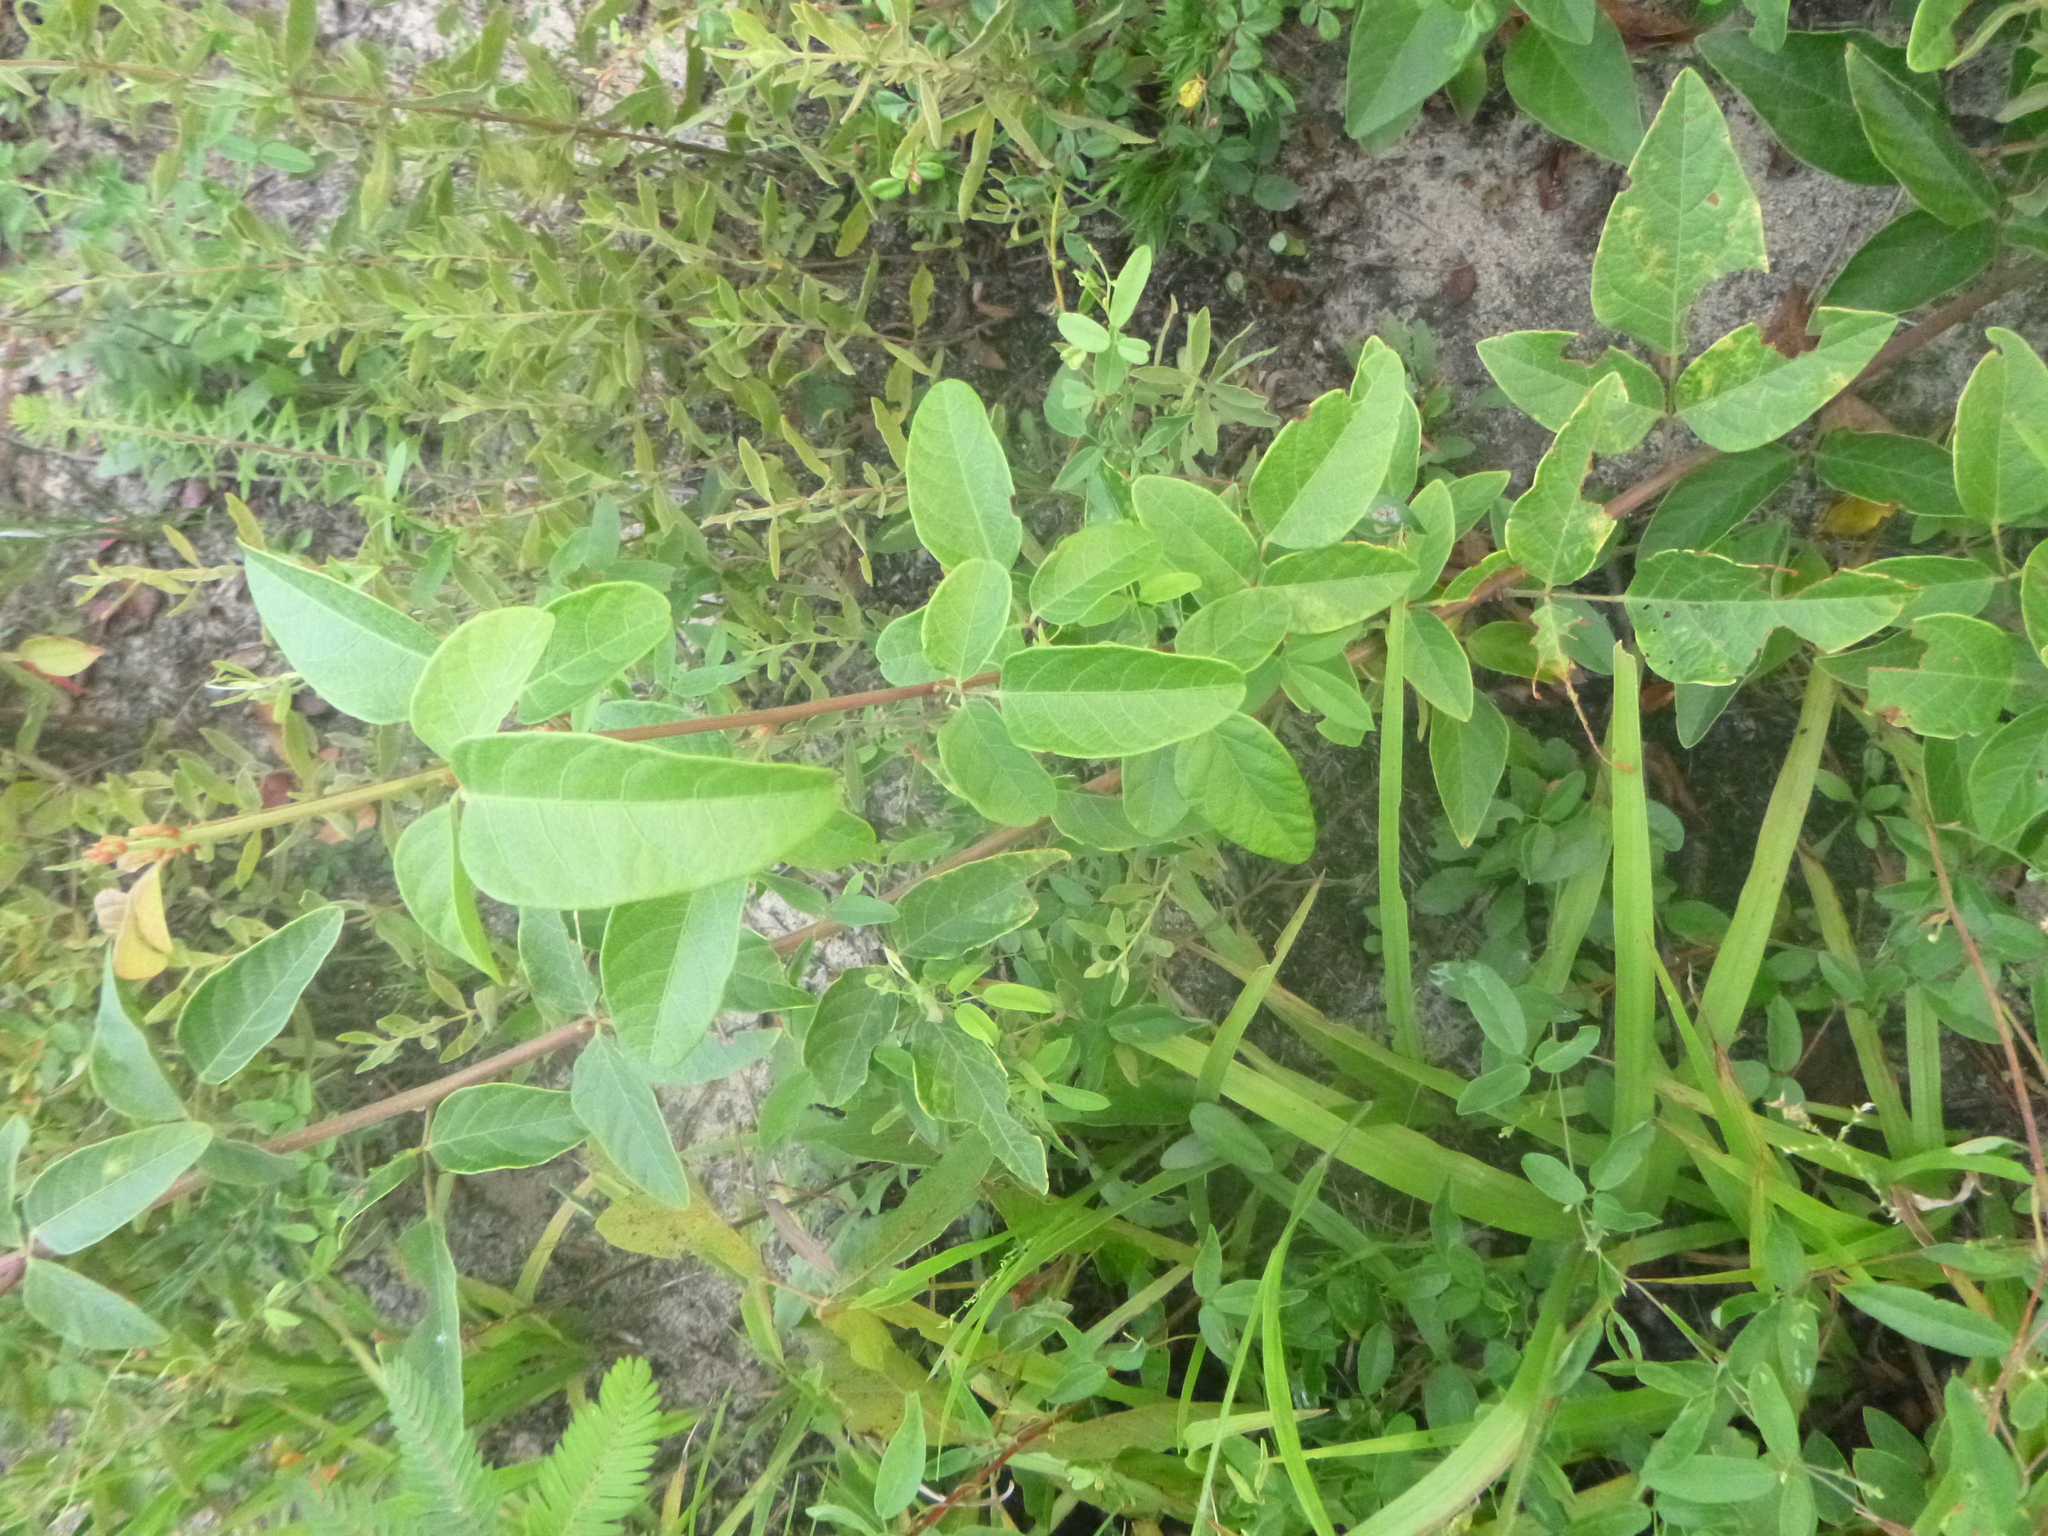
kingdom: Plantae
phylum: Tracheophyta
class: Magnoliopsida
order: Fabales
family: Fabaceae
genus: Desmodium
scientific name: Desmodium fernaldii
